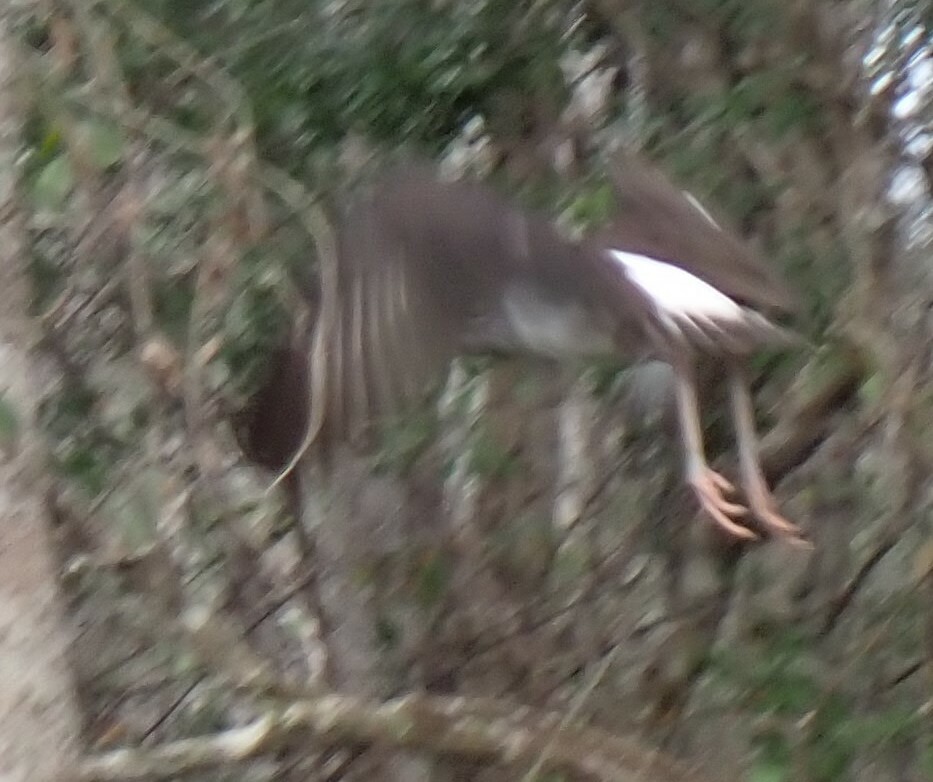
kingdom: Animalia
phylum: Chordata
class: Aves
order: Pelecaniformes
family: Threskiornithidae
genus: Eudocimus
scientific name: Eudocimus albus
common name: White ibis
